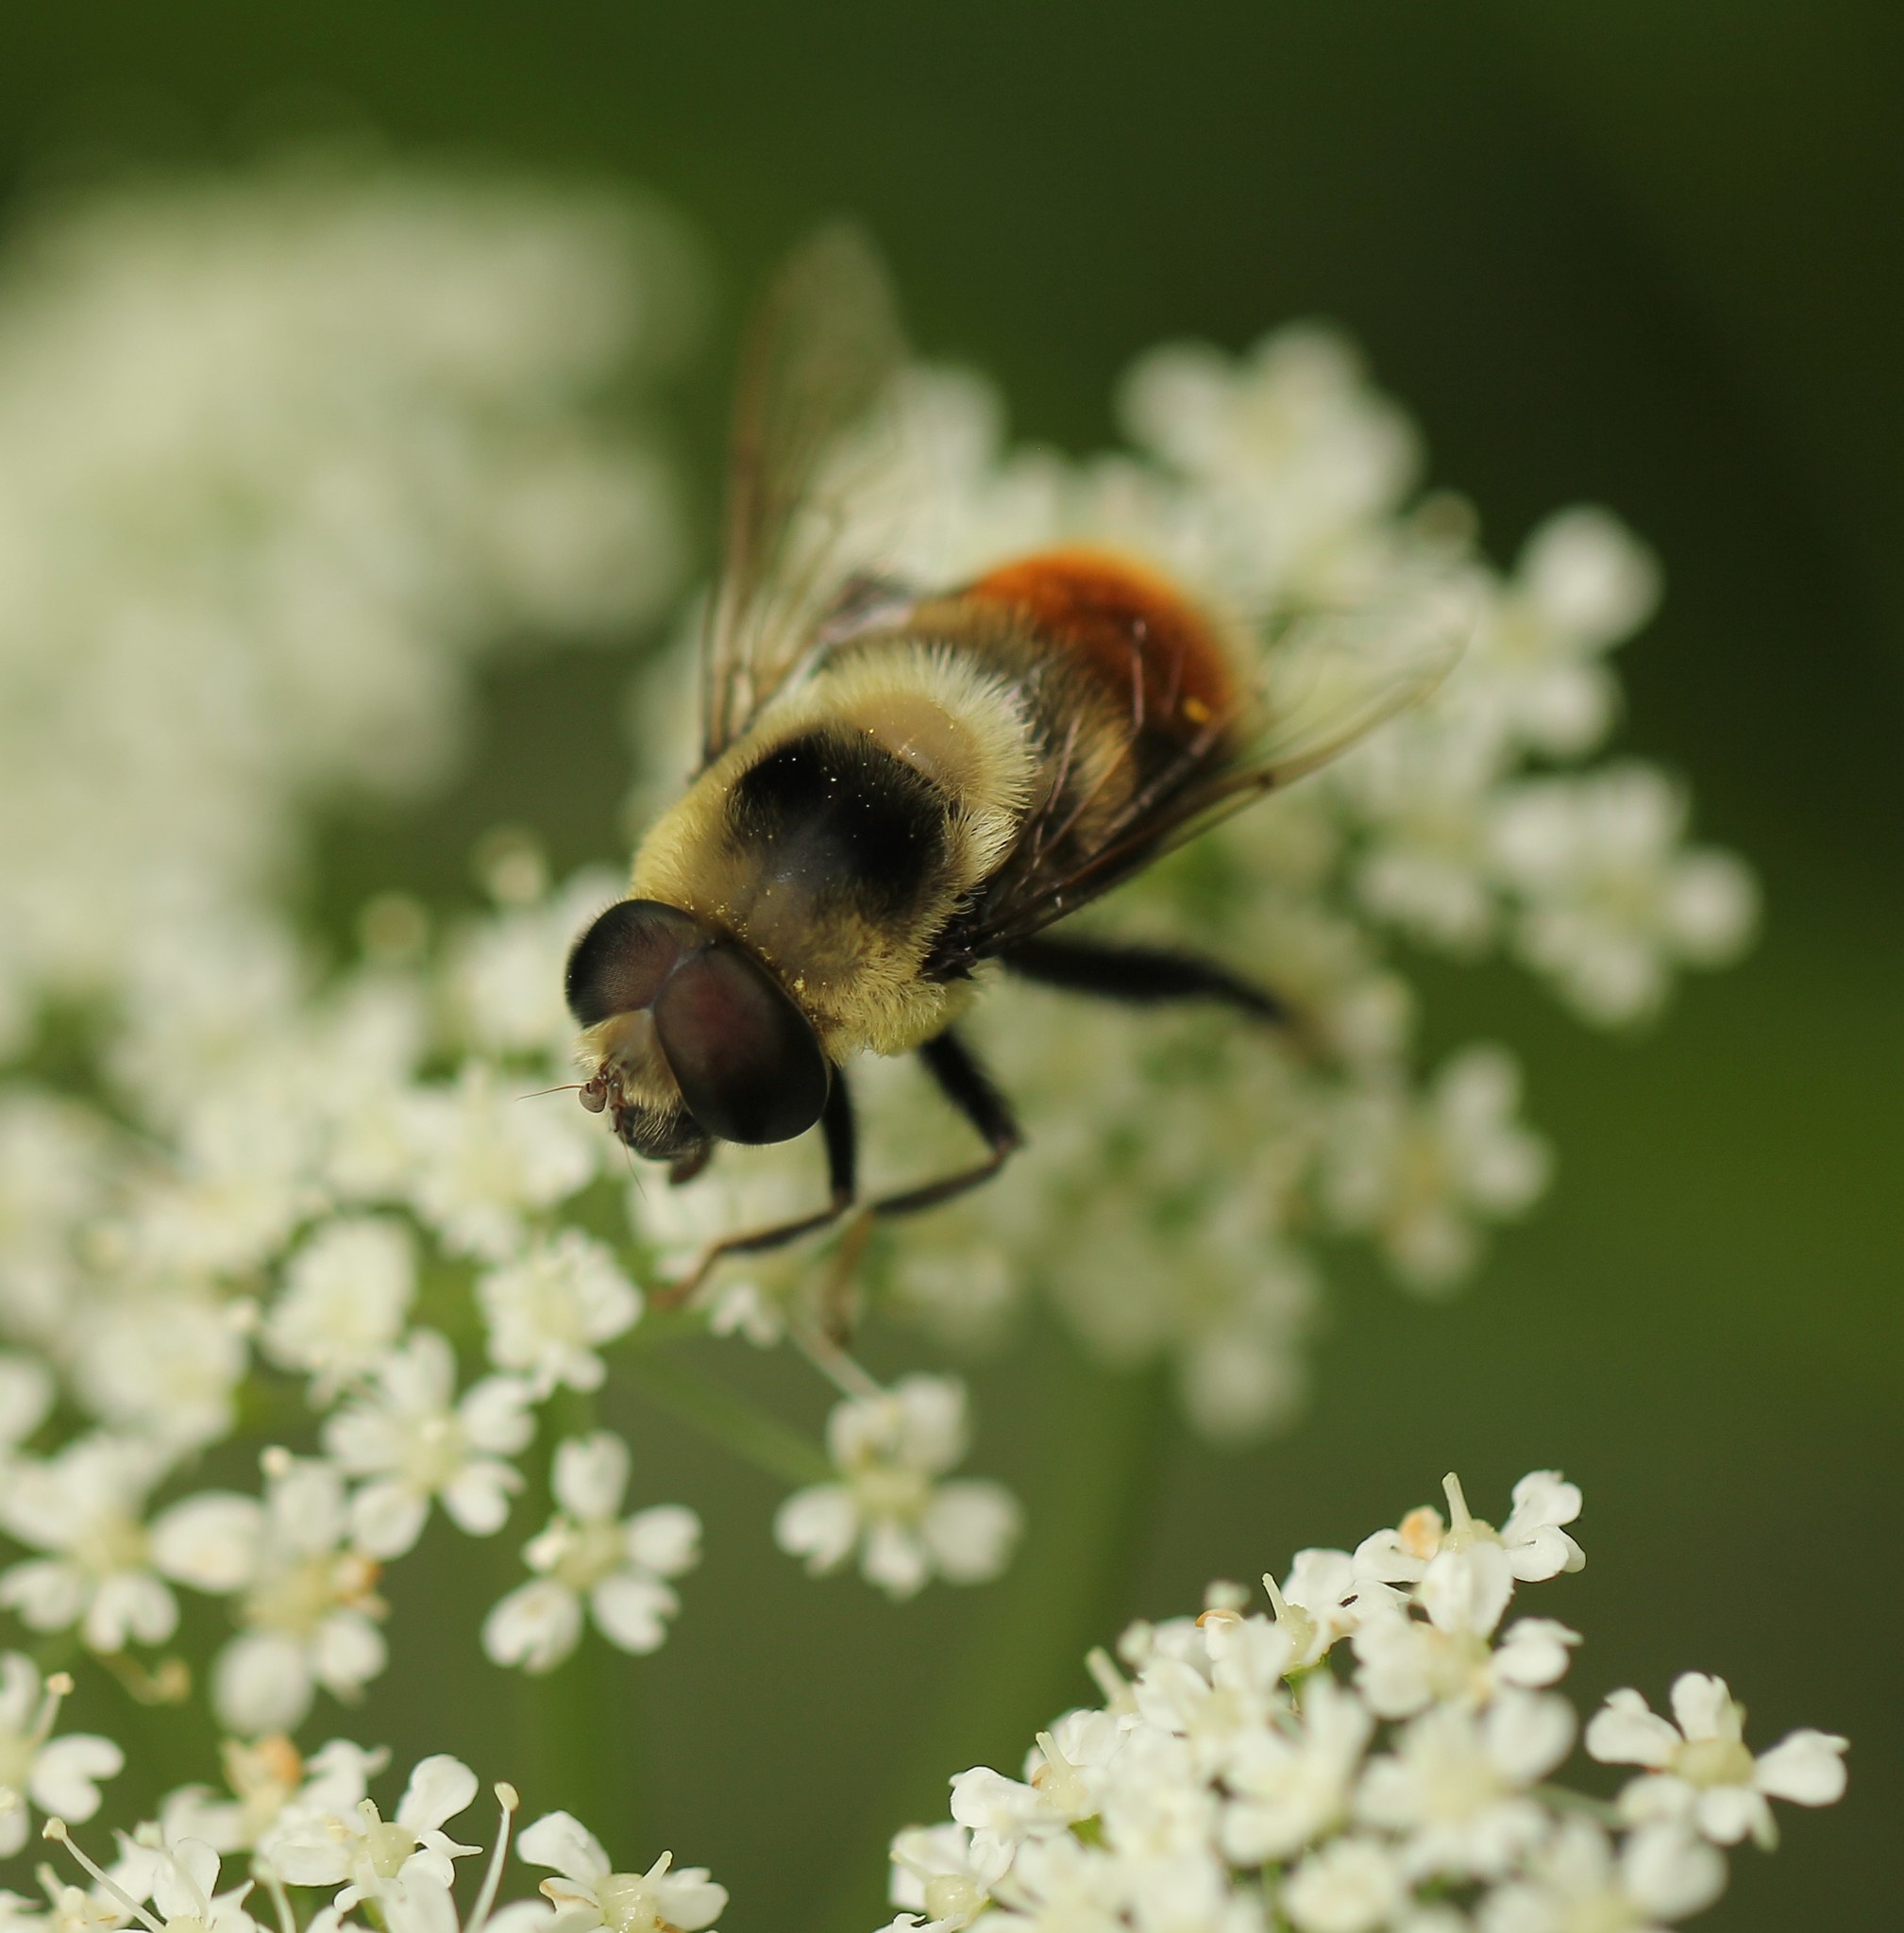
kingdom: Animalia
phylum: Arthropoda
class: Insecta
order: Diptera
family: Syrphidae
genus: Eristalis
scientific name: Eristalis flavipes
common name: Orange-legged drone fly
